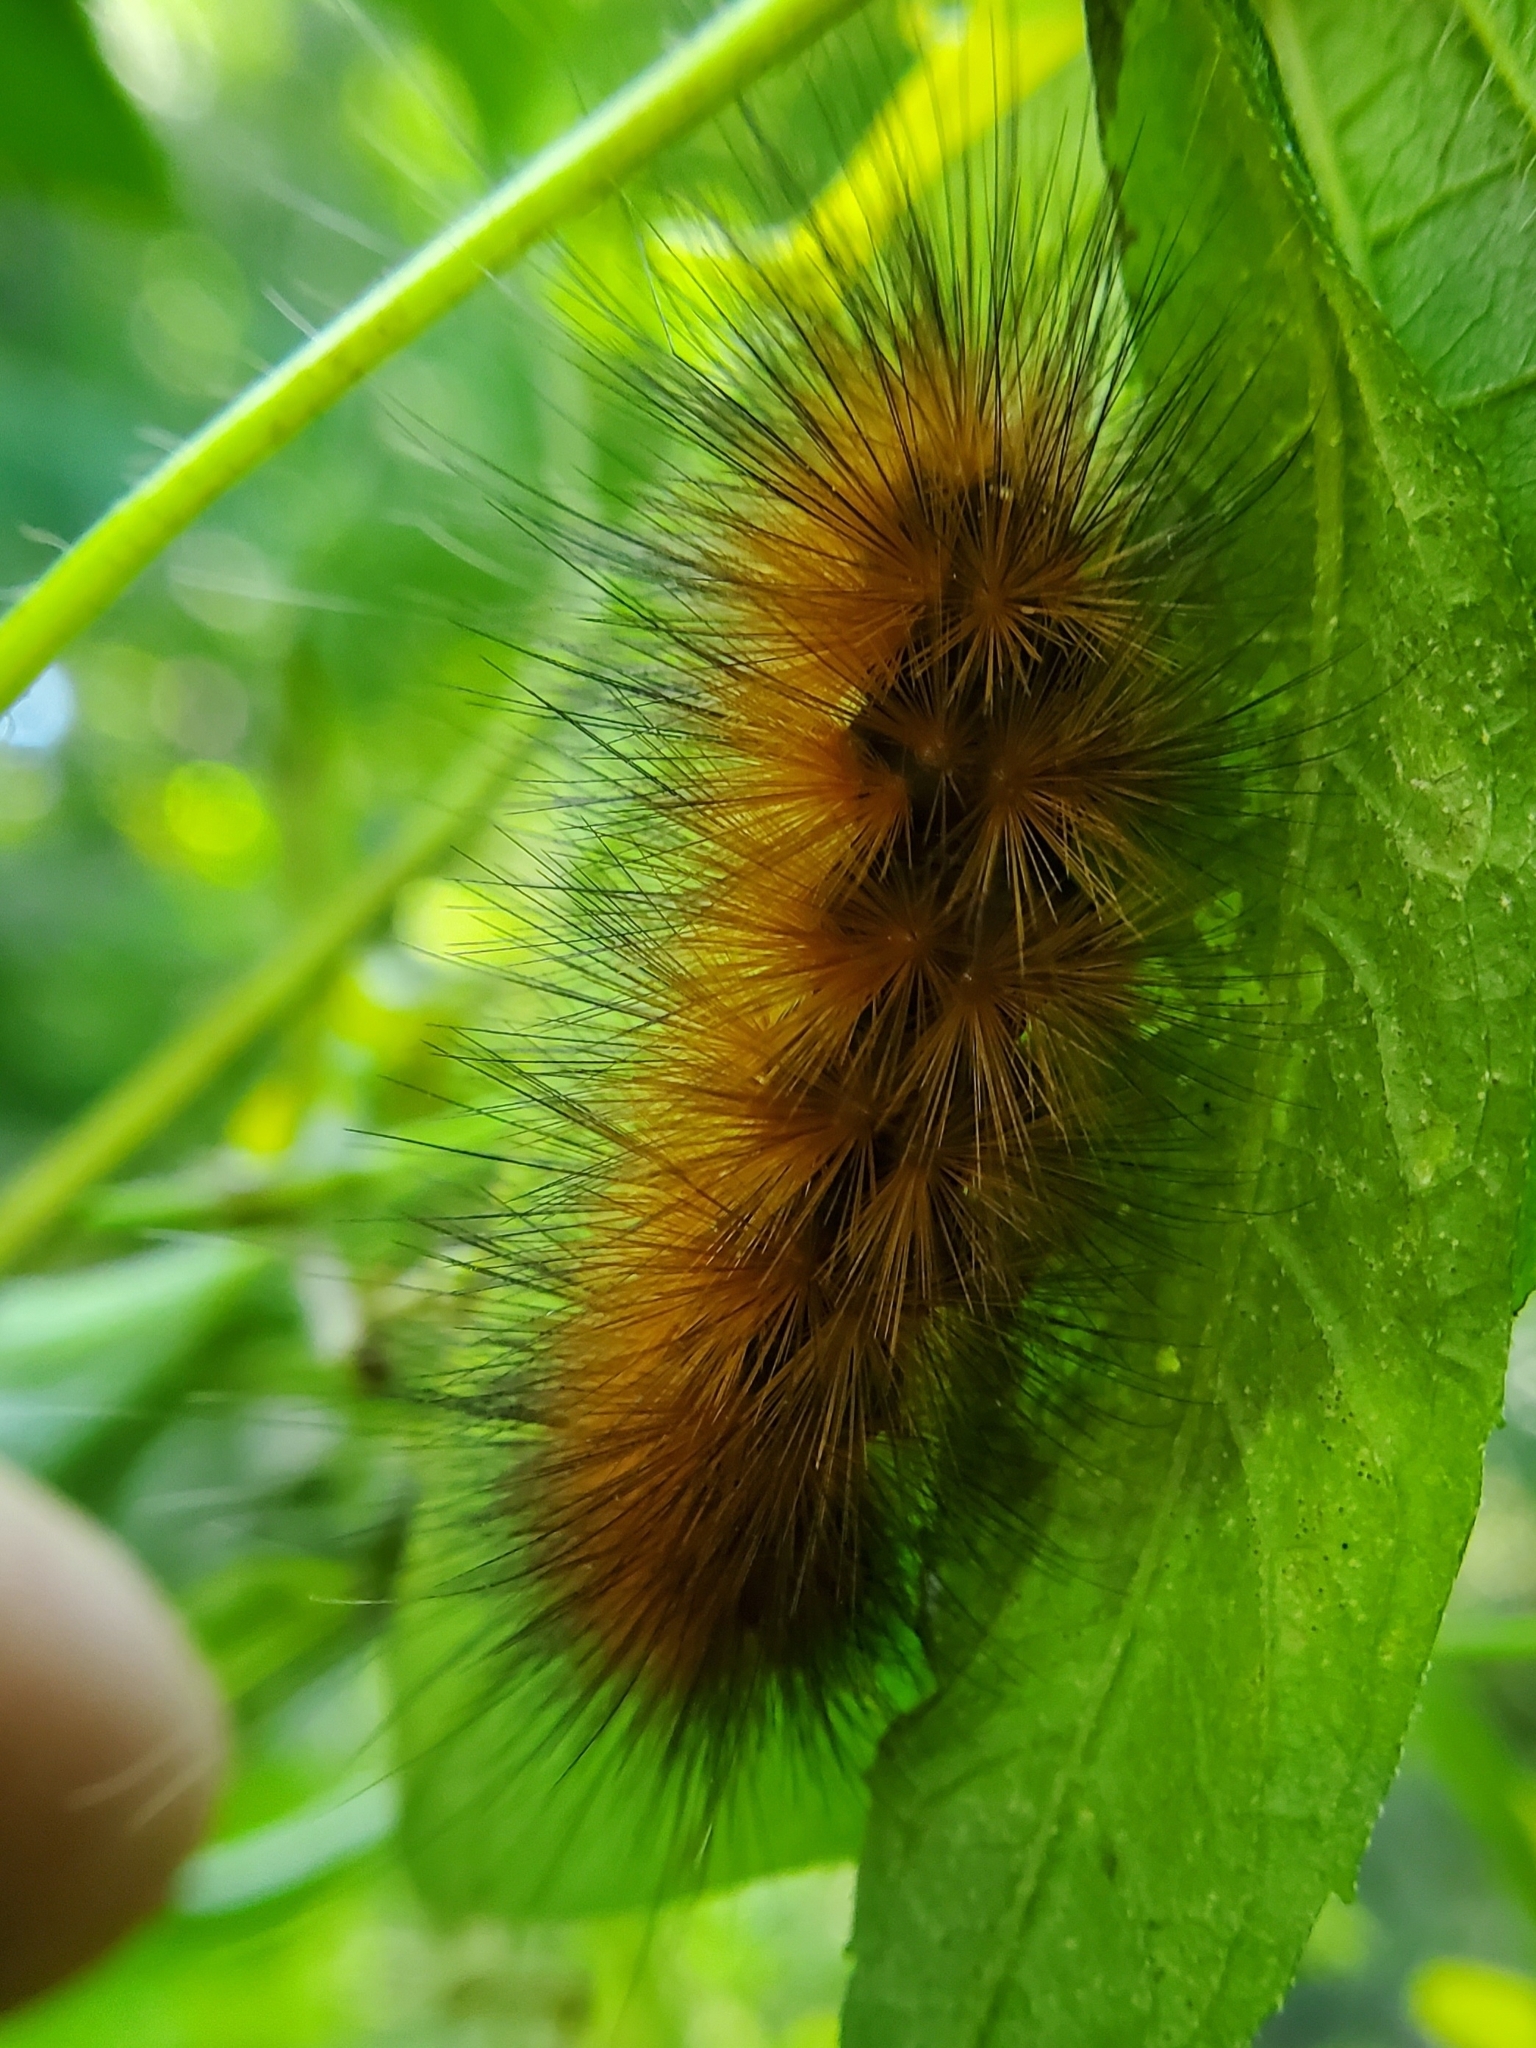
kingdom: Animalia
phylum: Arthropoda
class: Insecta
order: Lepidoptera
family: Erebidae
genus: Spilosoma
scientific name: Spilosoma virginica
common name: Virginia tiger moth
